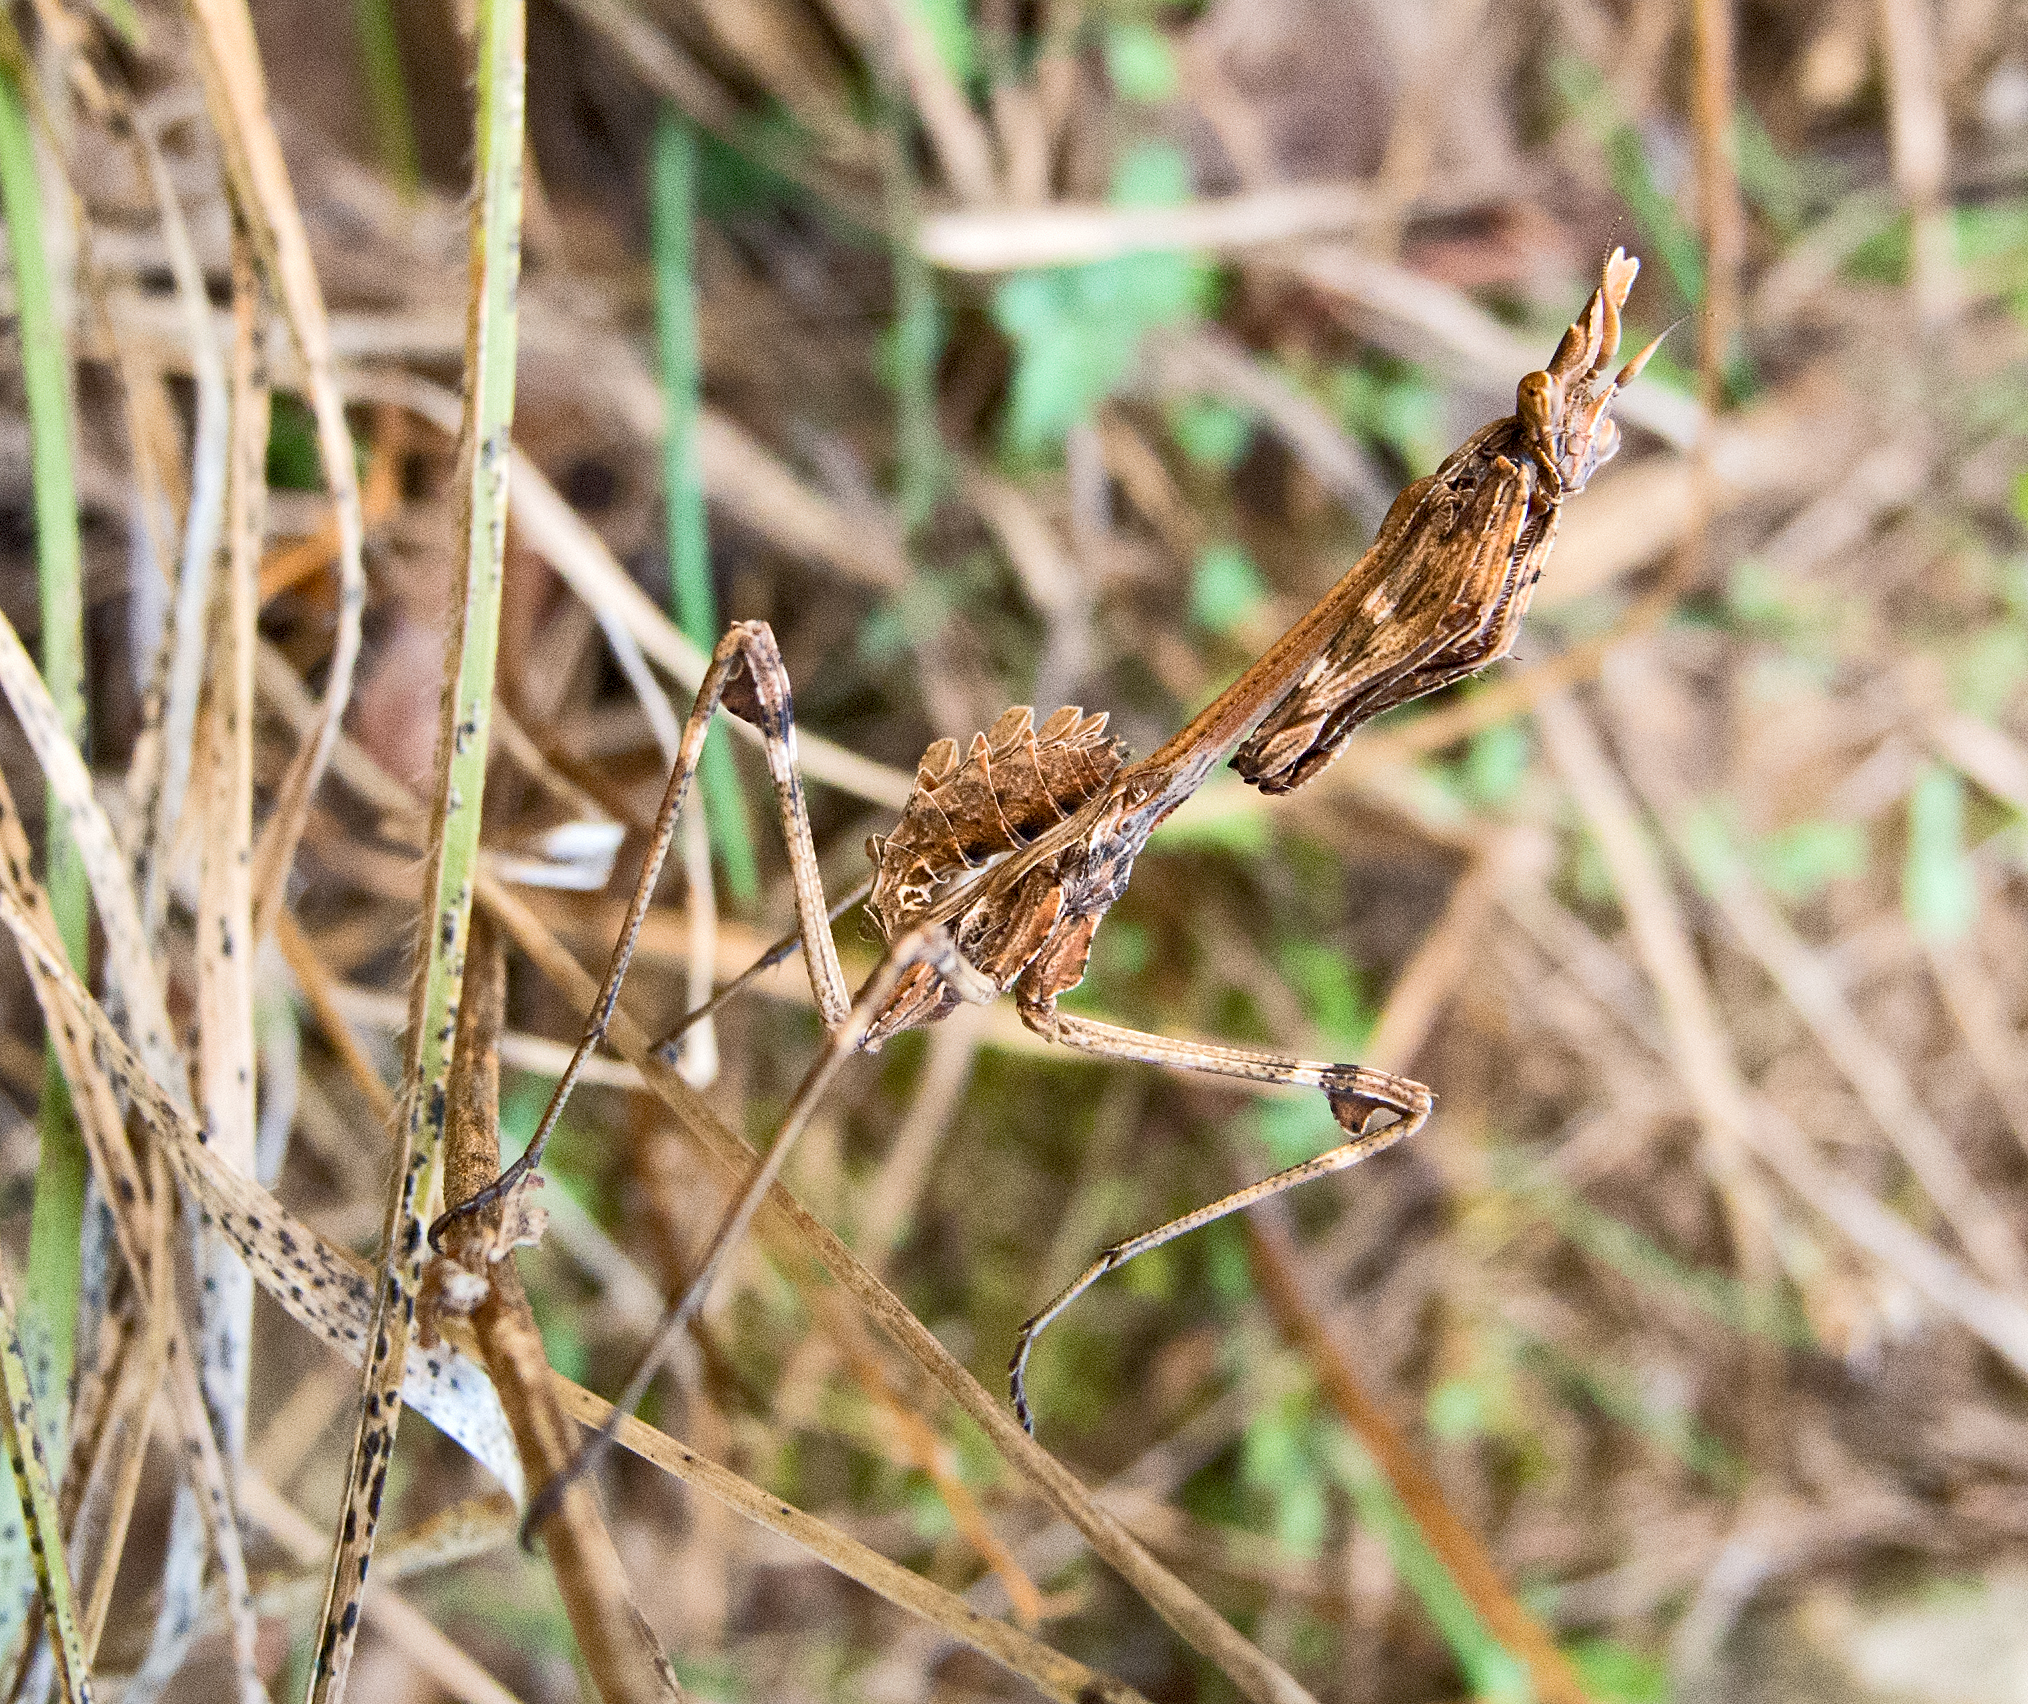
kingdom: Animalia
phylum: Arthropoda
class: Insecta
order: Mantodea
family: Empusidae
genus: Empusa
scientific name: Empusa fasciata
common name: Devil's mare
